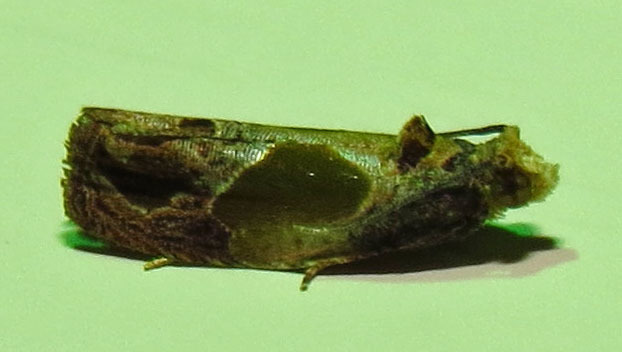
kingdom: Animalia
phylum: Arthropoda
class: Insecta
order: Lepidoptera
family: Tortricidae
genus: Eumarozia
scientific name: Eumarozia malachitana
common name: Sculptured moth
